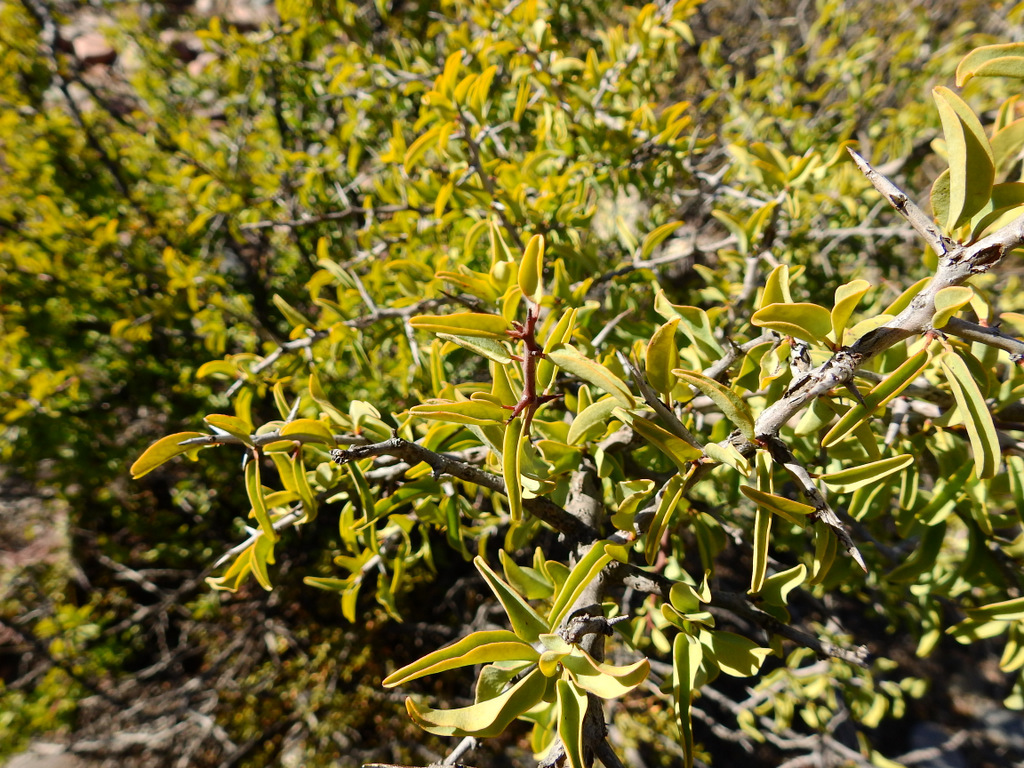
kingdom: Plantae
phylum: Tracheophyta
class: Magnoliopsida
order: Santalales
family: Ximeniaceae
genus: Ximenia
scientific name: Ximenia americana
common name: Tallowwood
